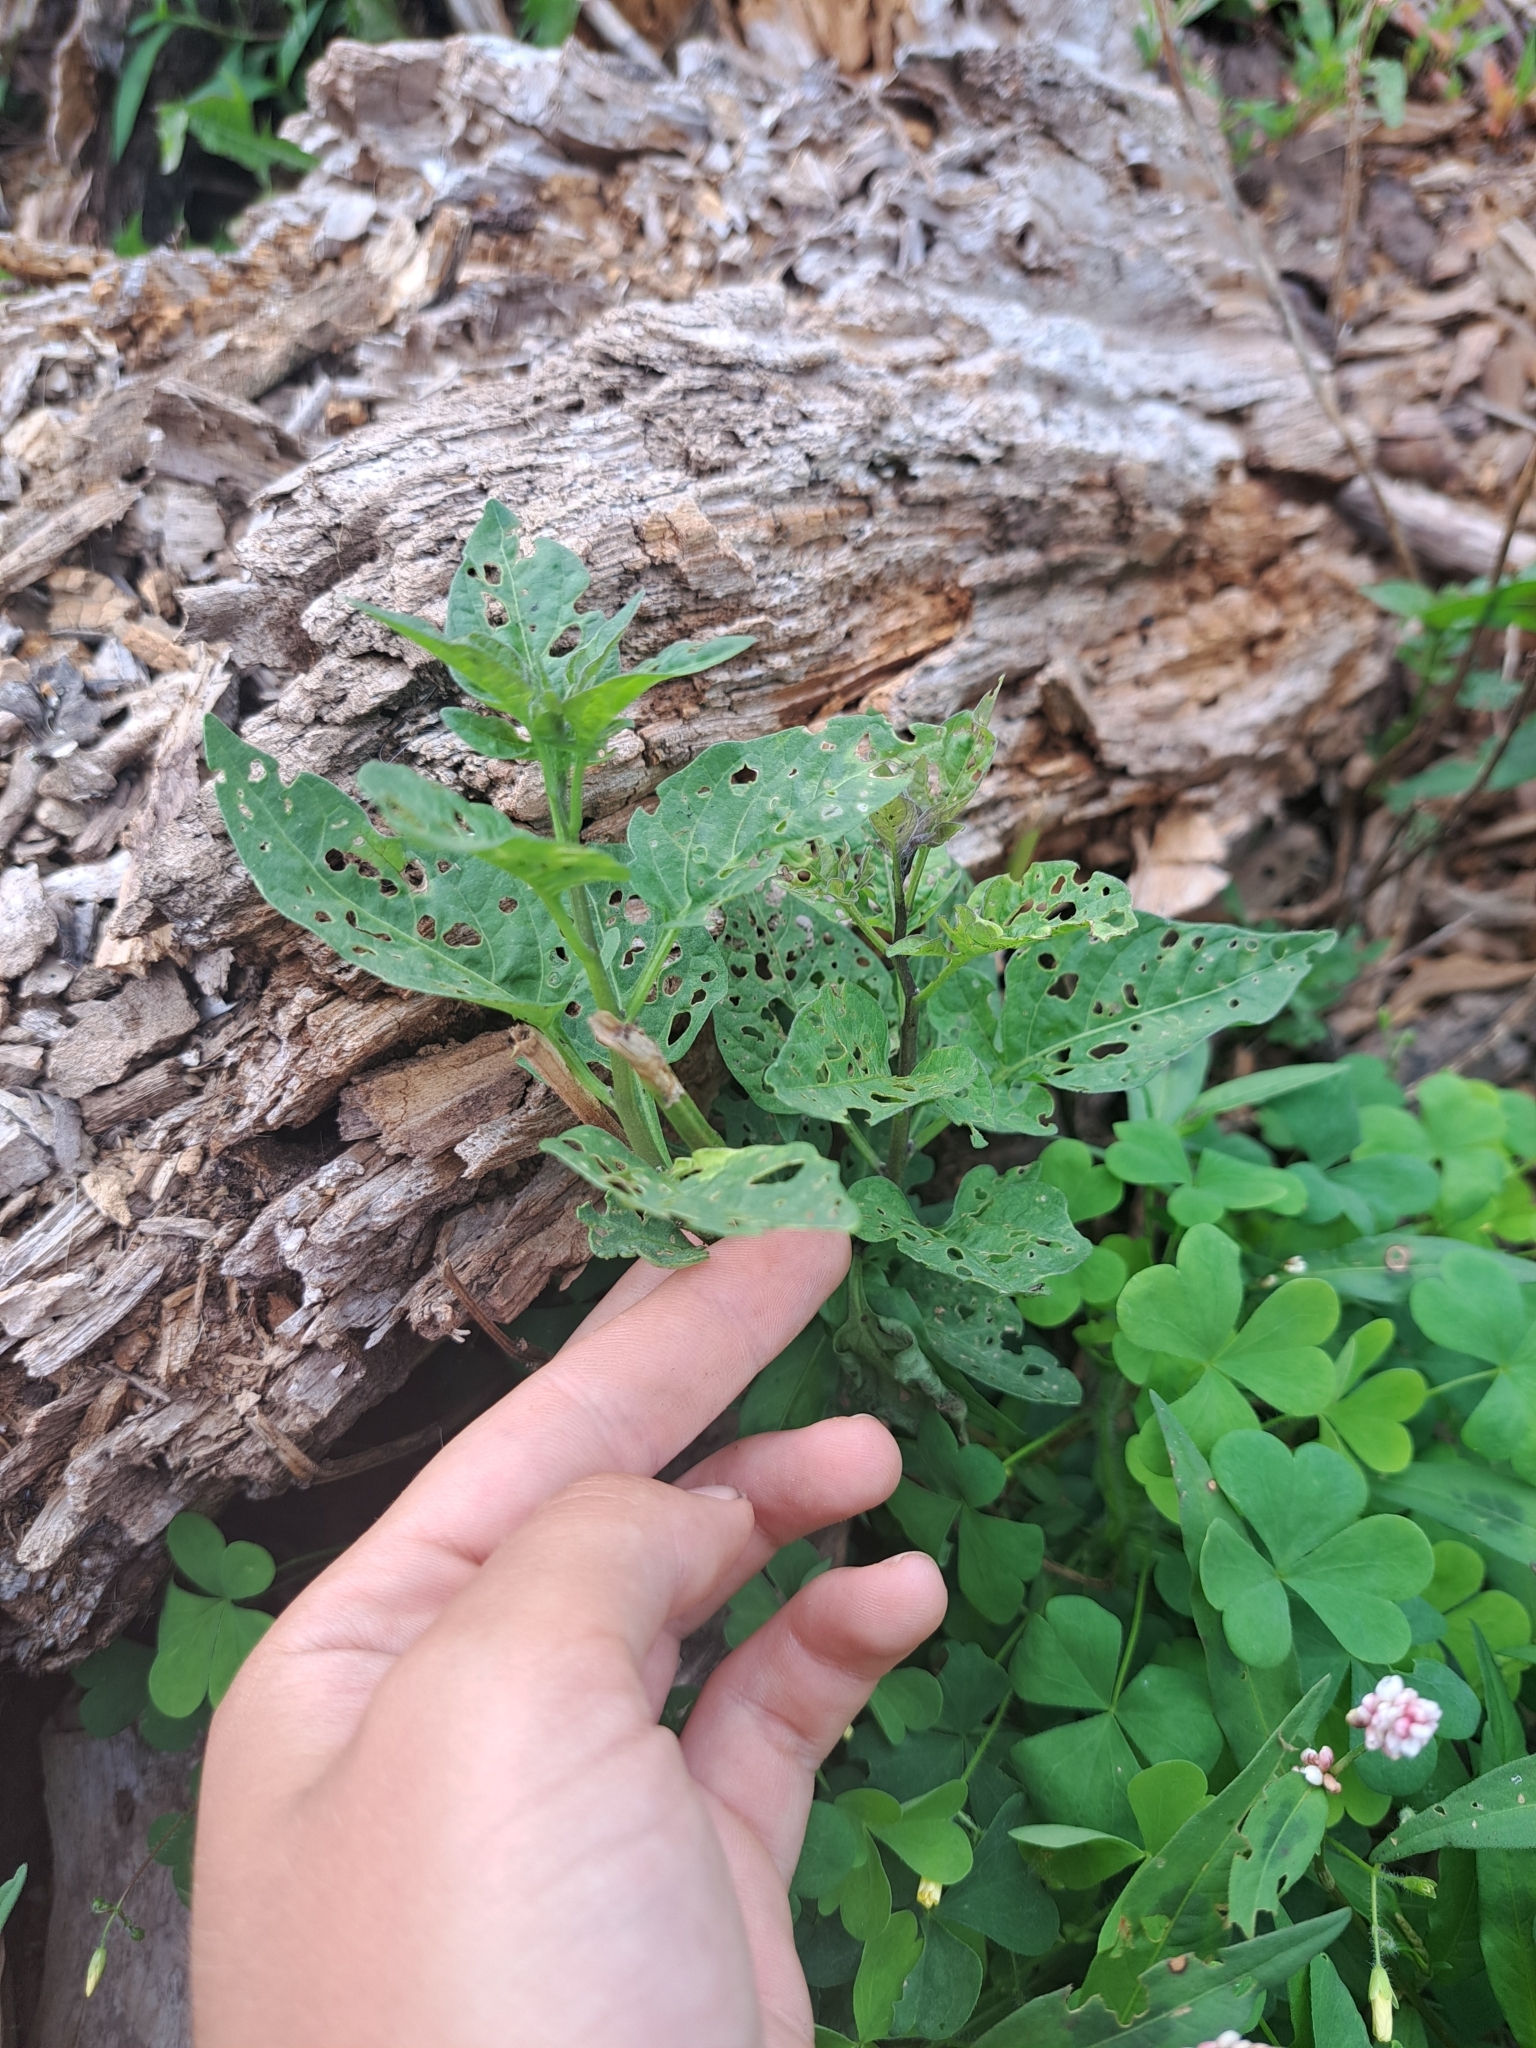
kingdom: Plantae
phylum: Tracheophyta
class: Magnoliopsida
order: Solanales
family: Solanaceae
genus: Solanum
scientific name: Solanum dulcamara
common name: Climbing nightshade
